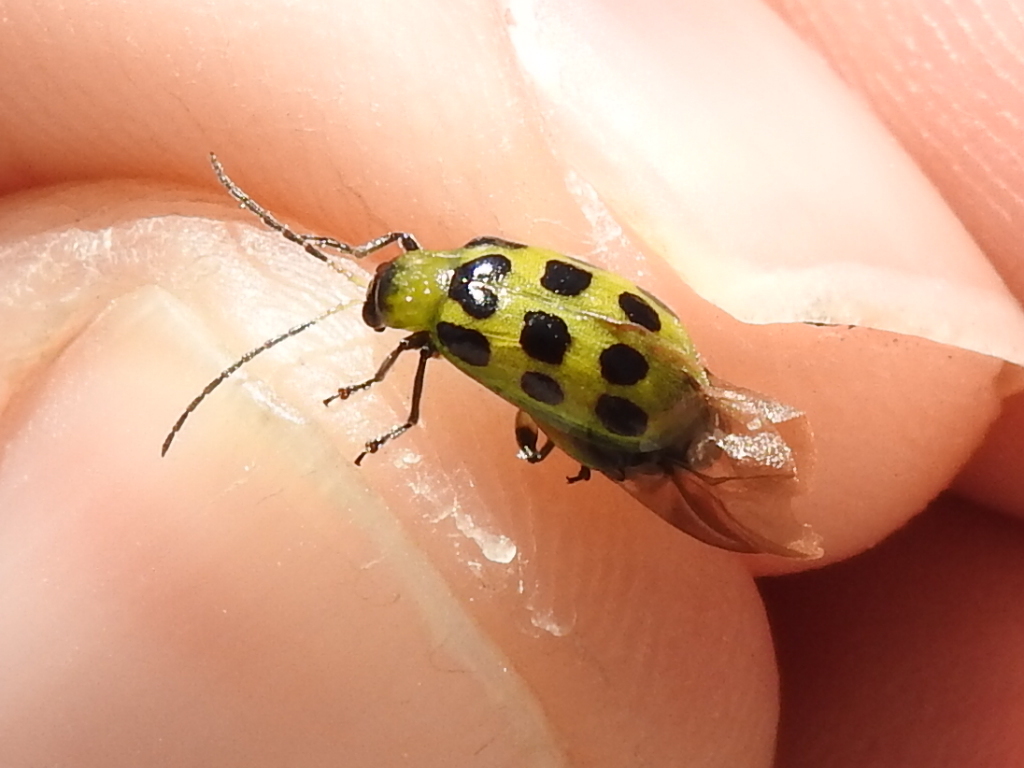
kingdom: Animalia
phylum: Arthropoda
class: Insecta
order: Coleoptera
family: Chrysomelidae
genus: Diabrotica
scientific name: Diabrotica undecimpunctata
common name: Spotted cucumber beetle
